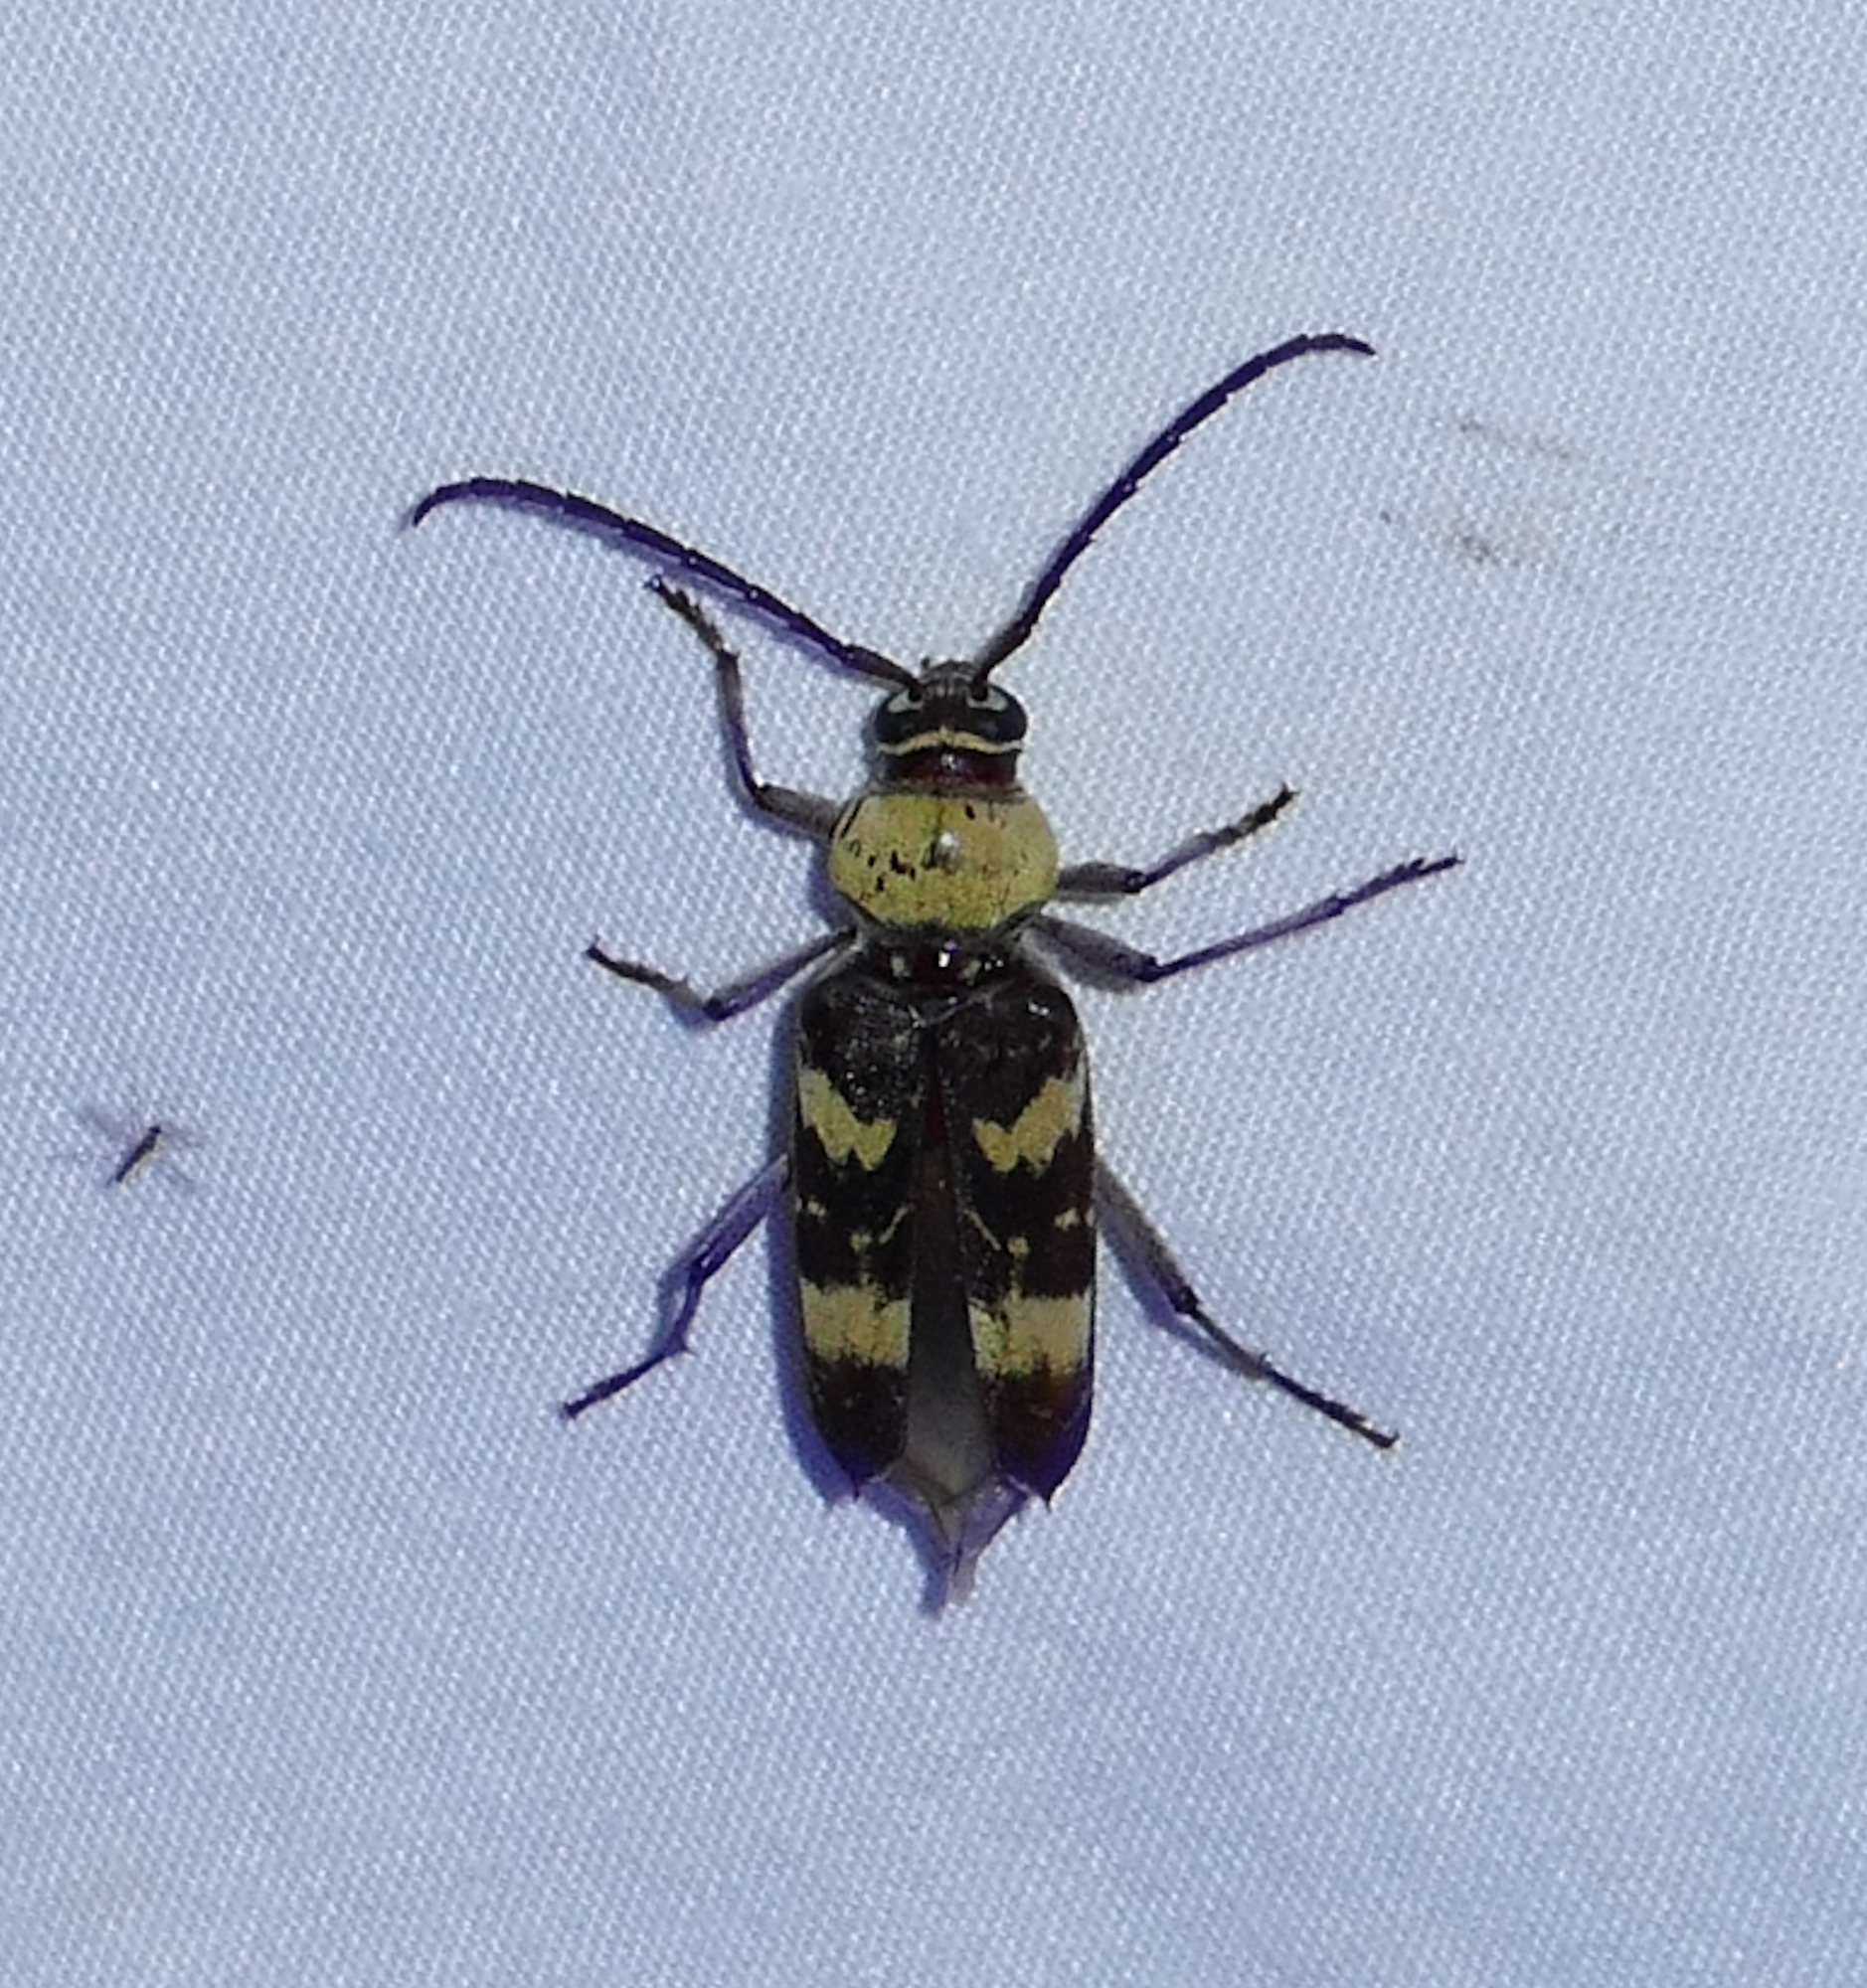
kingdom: Animalia
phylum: Arthropoda
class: Insecta
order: Coleoptera
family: Cerambycidae
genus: Megacyllene
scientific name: Megacyllene antennata
